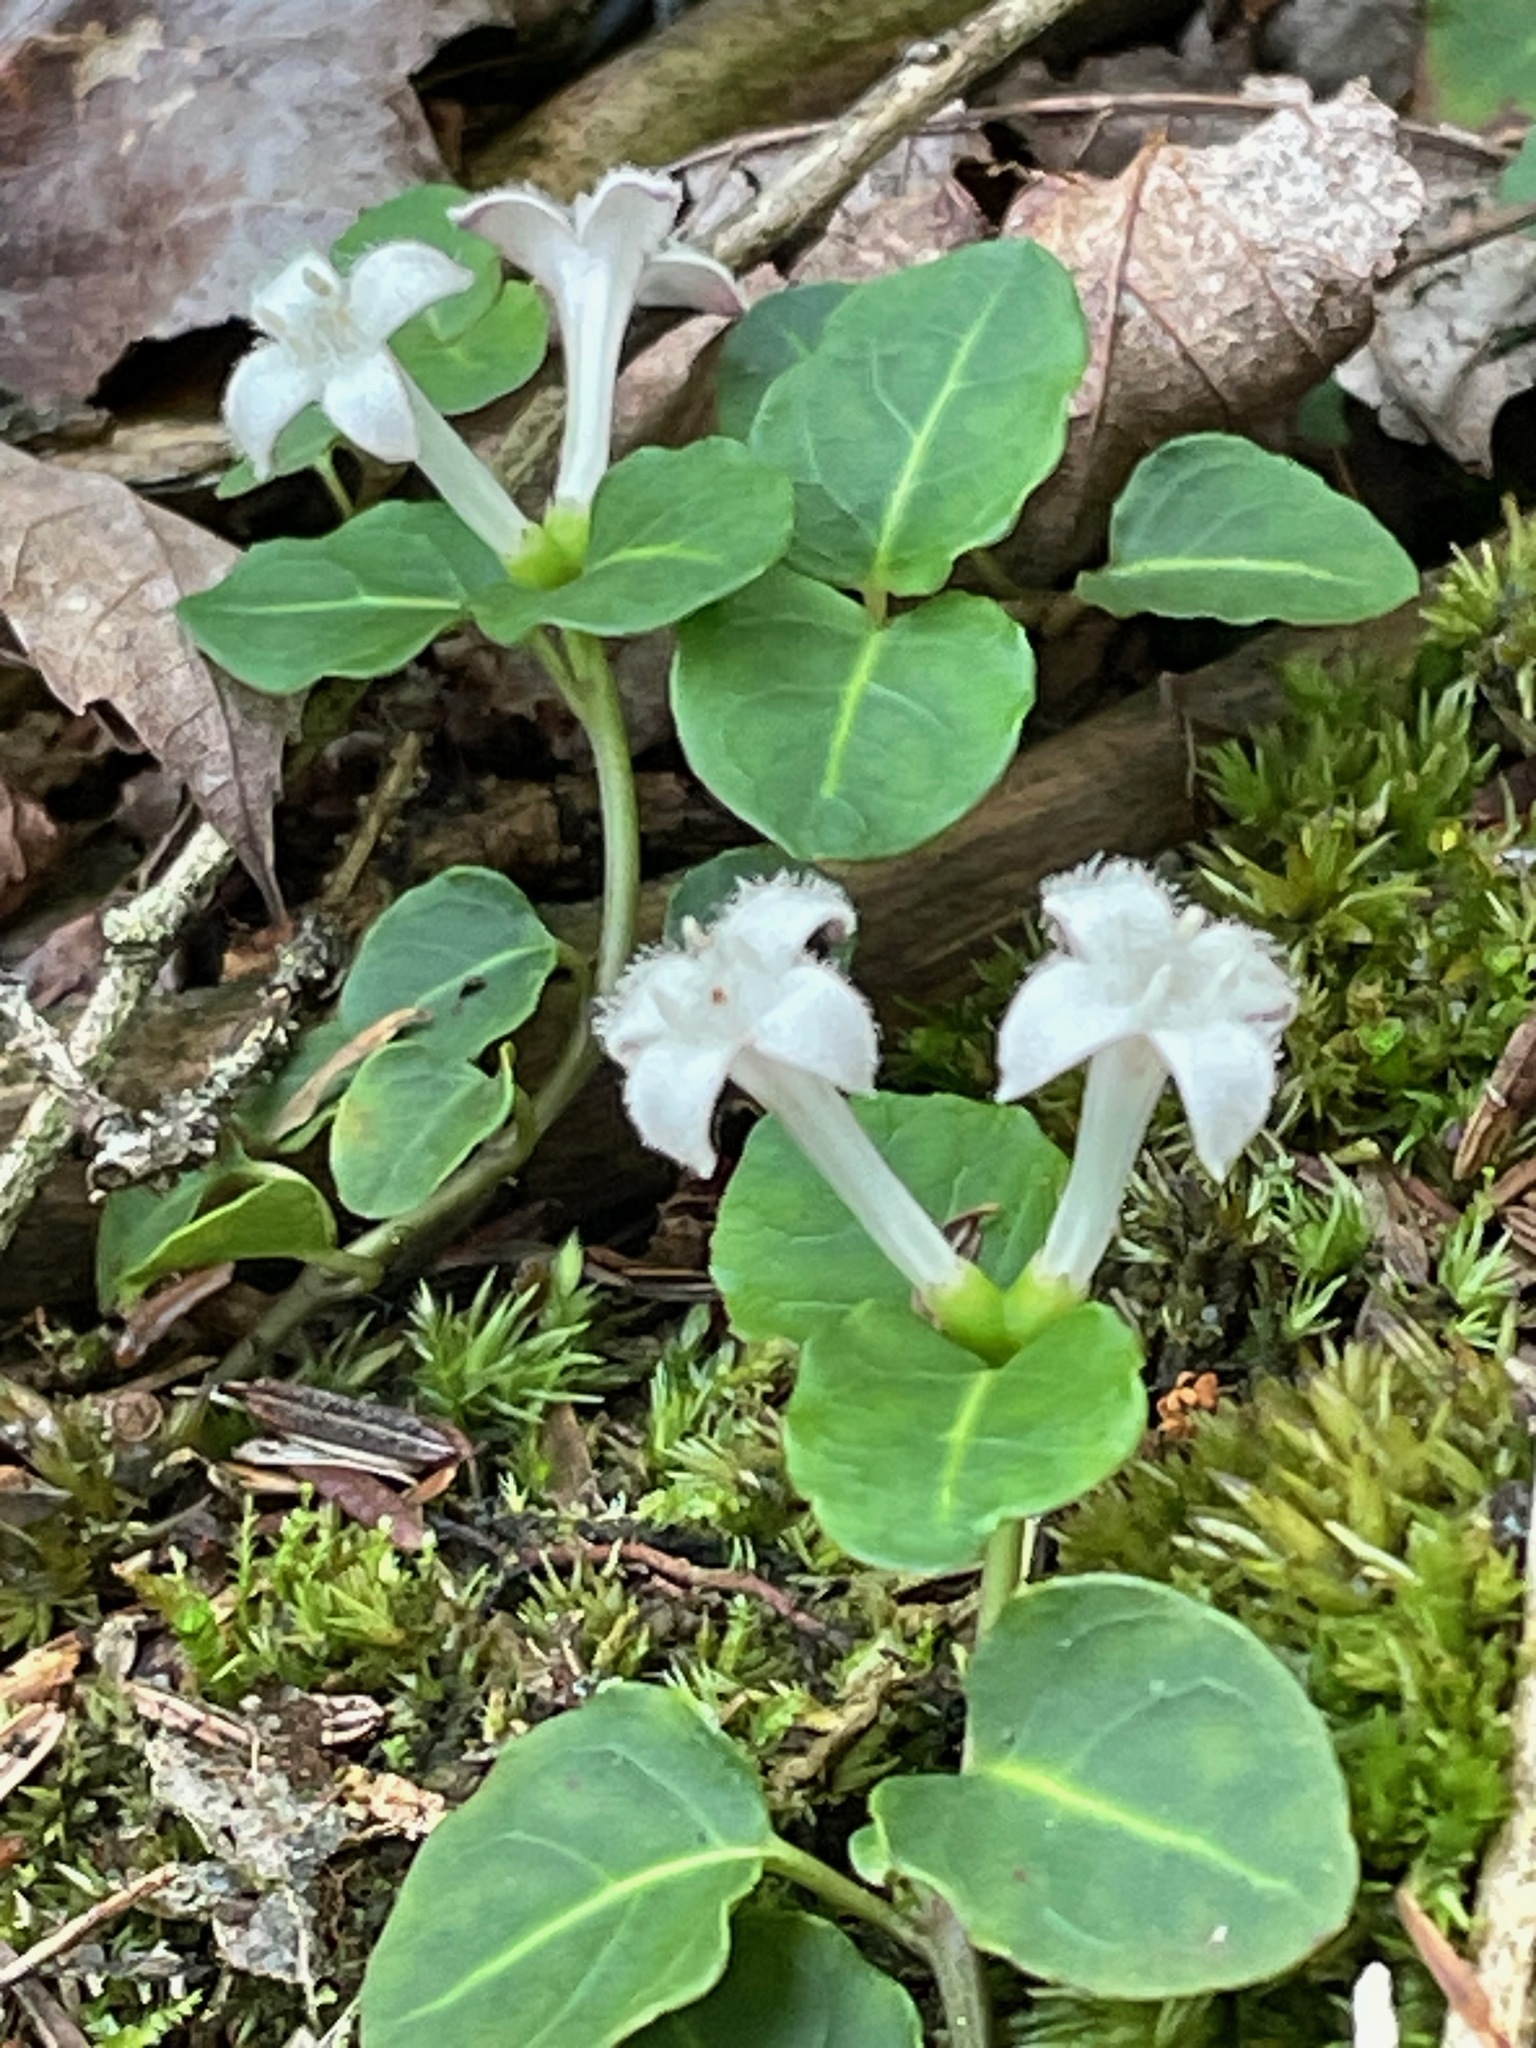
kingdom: Plantae
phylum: Tracheophyta
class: Magnoliopsida
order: Gentianales
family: Rubiaceae
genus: Mitchella
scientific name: Mitchella repens
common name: Partridge-berry
